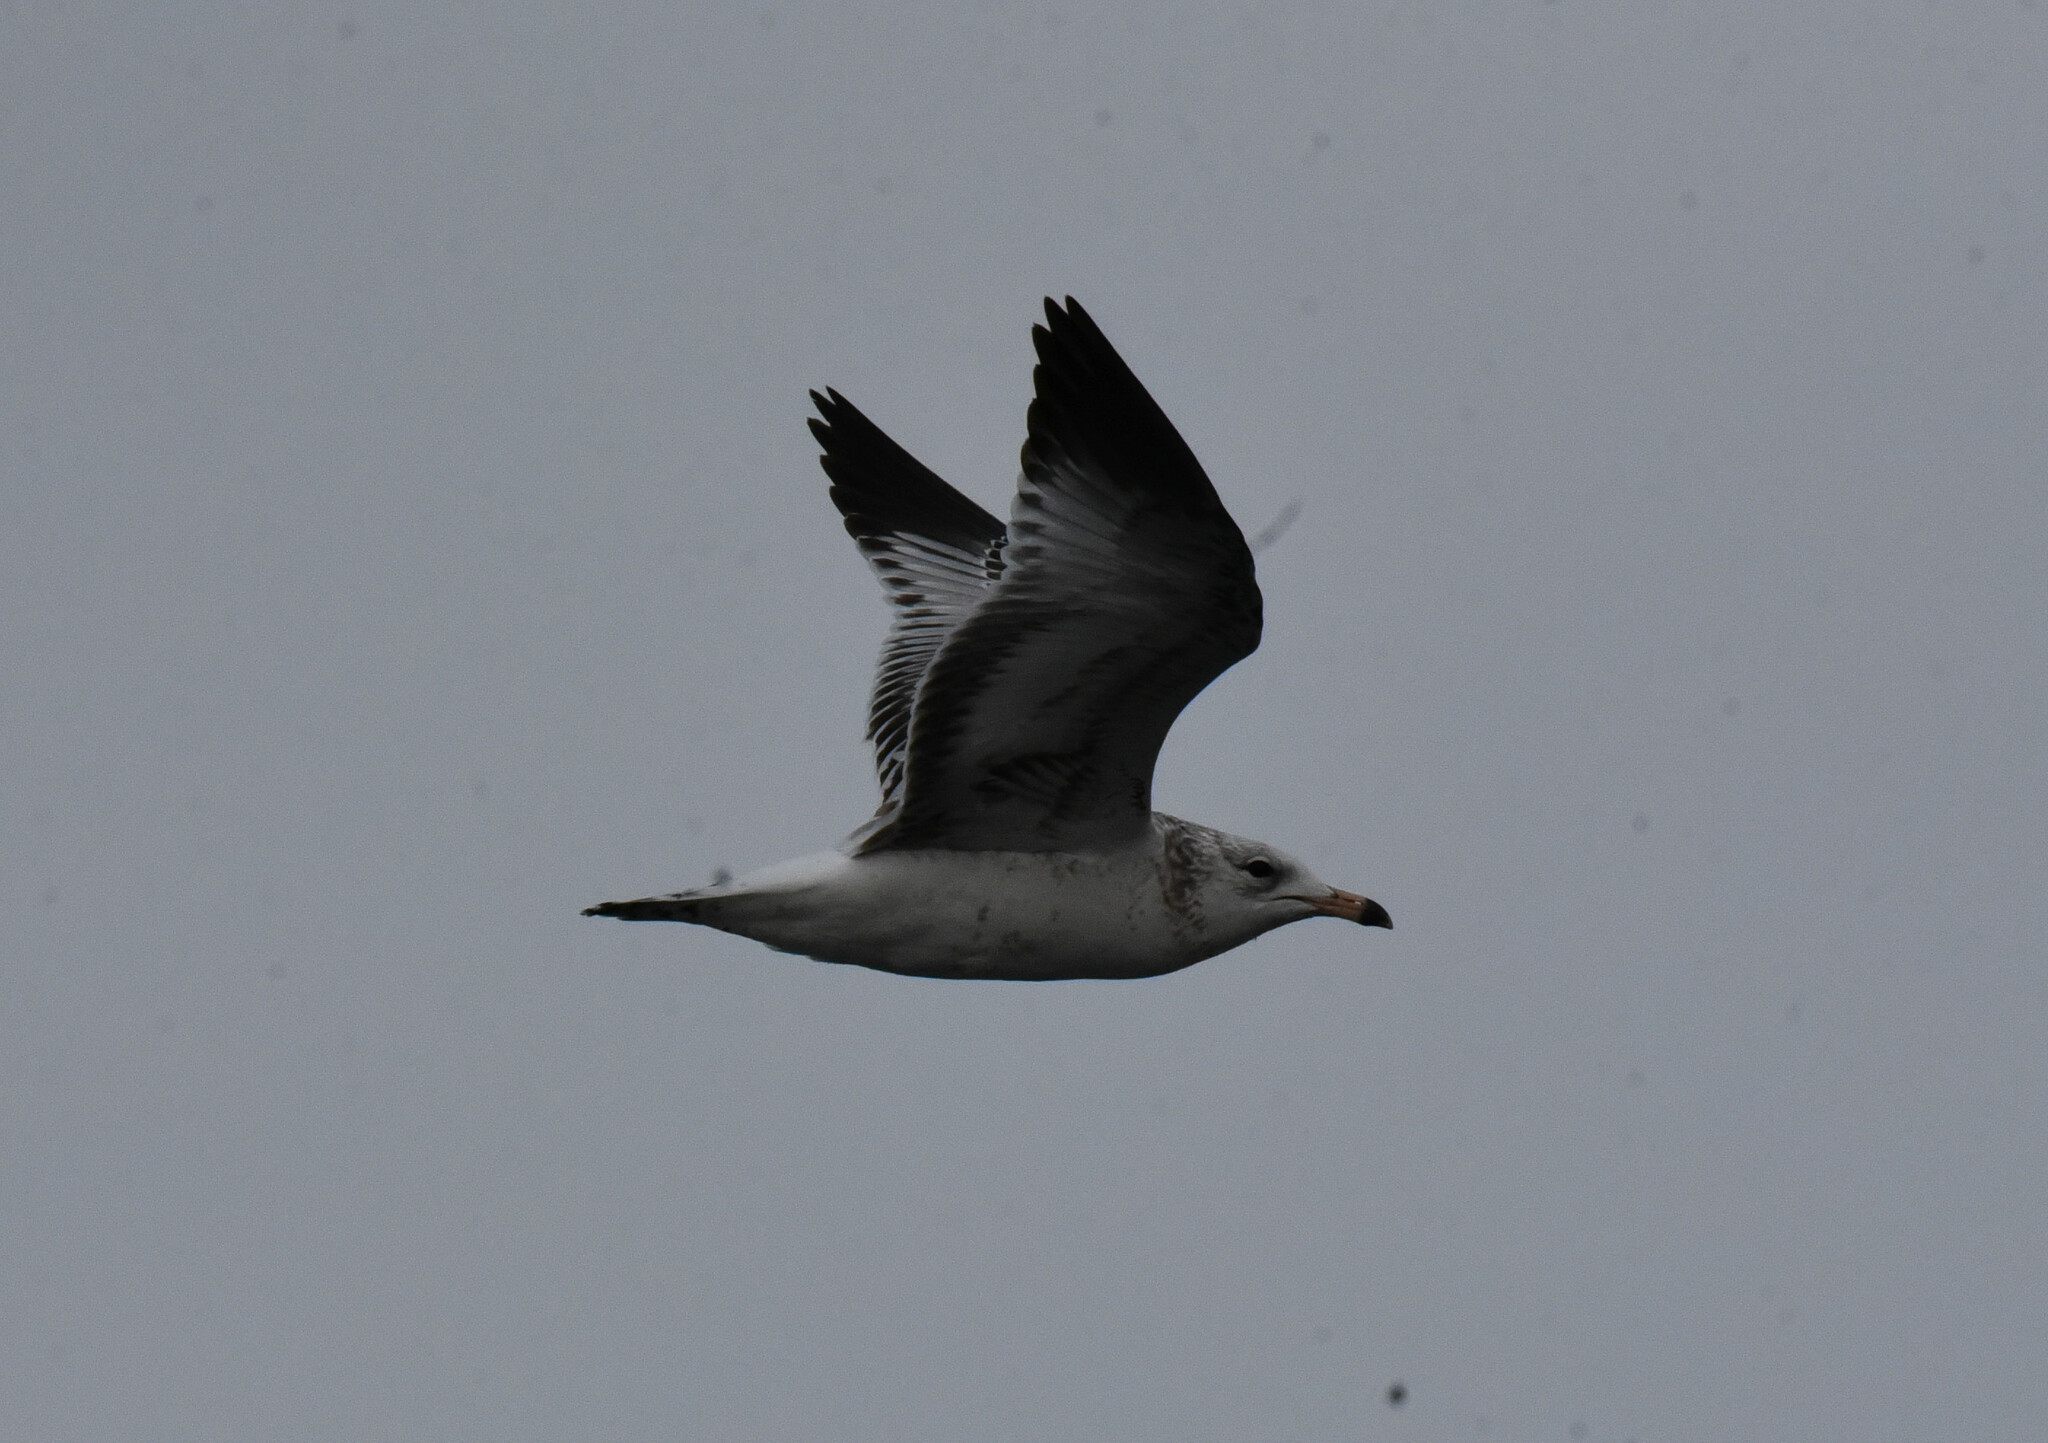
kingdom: Animalia
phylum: Chordata
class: Aves
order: Charadriiformes
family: Laridae
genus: Larus
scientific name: Larus delawarensis
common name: Ring-billed gull
